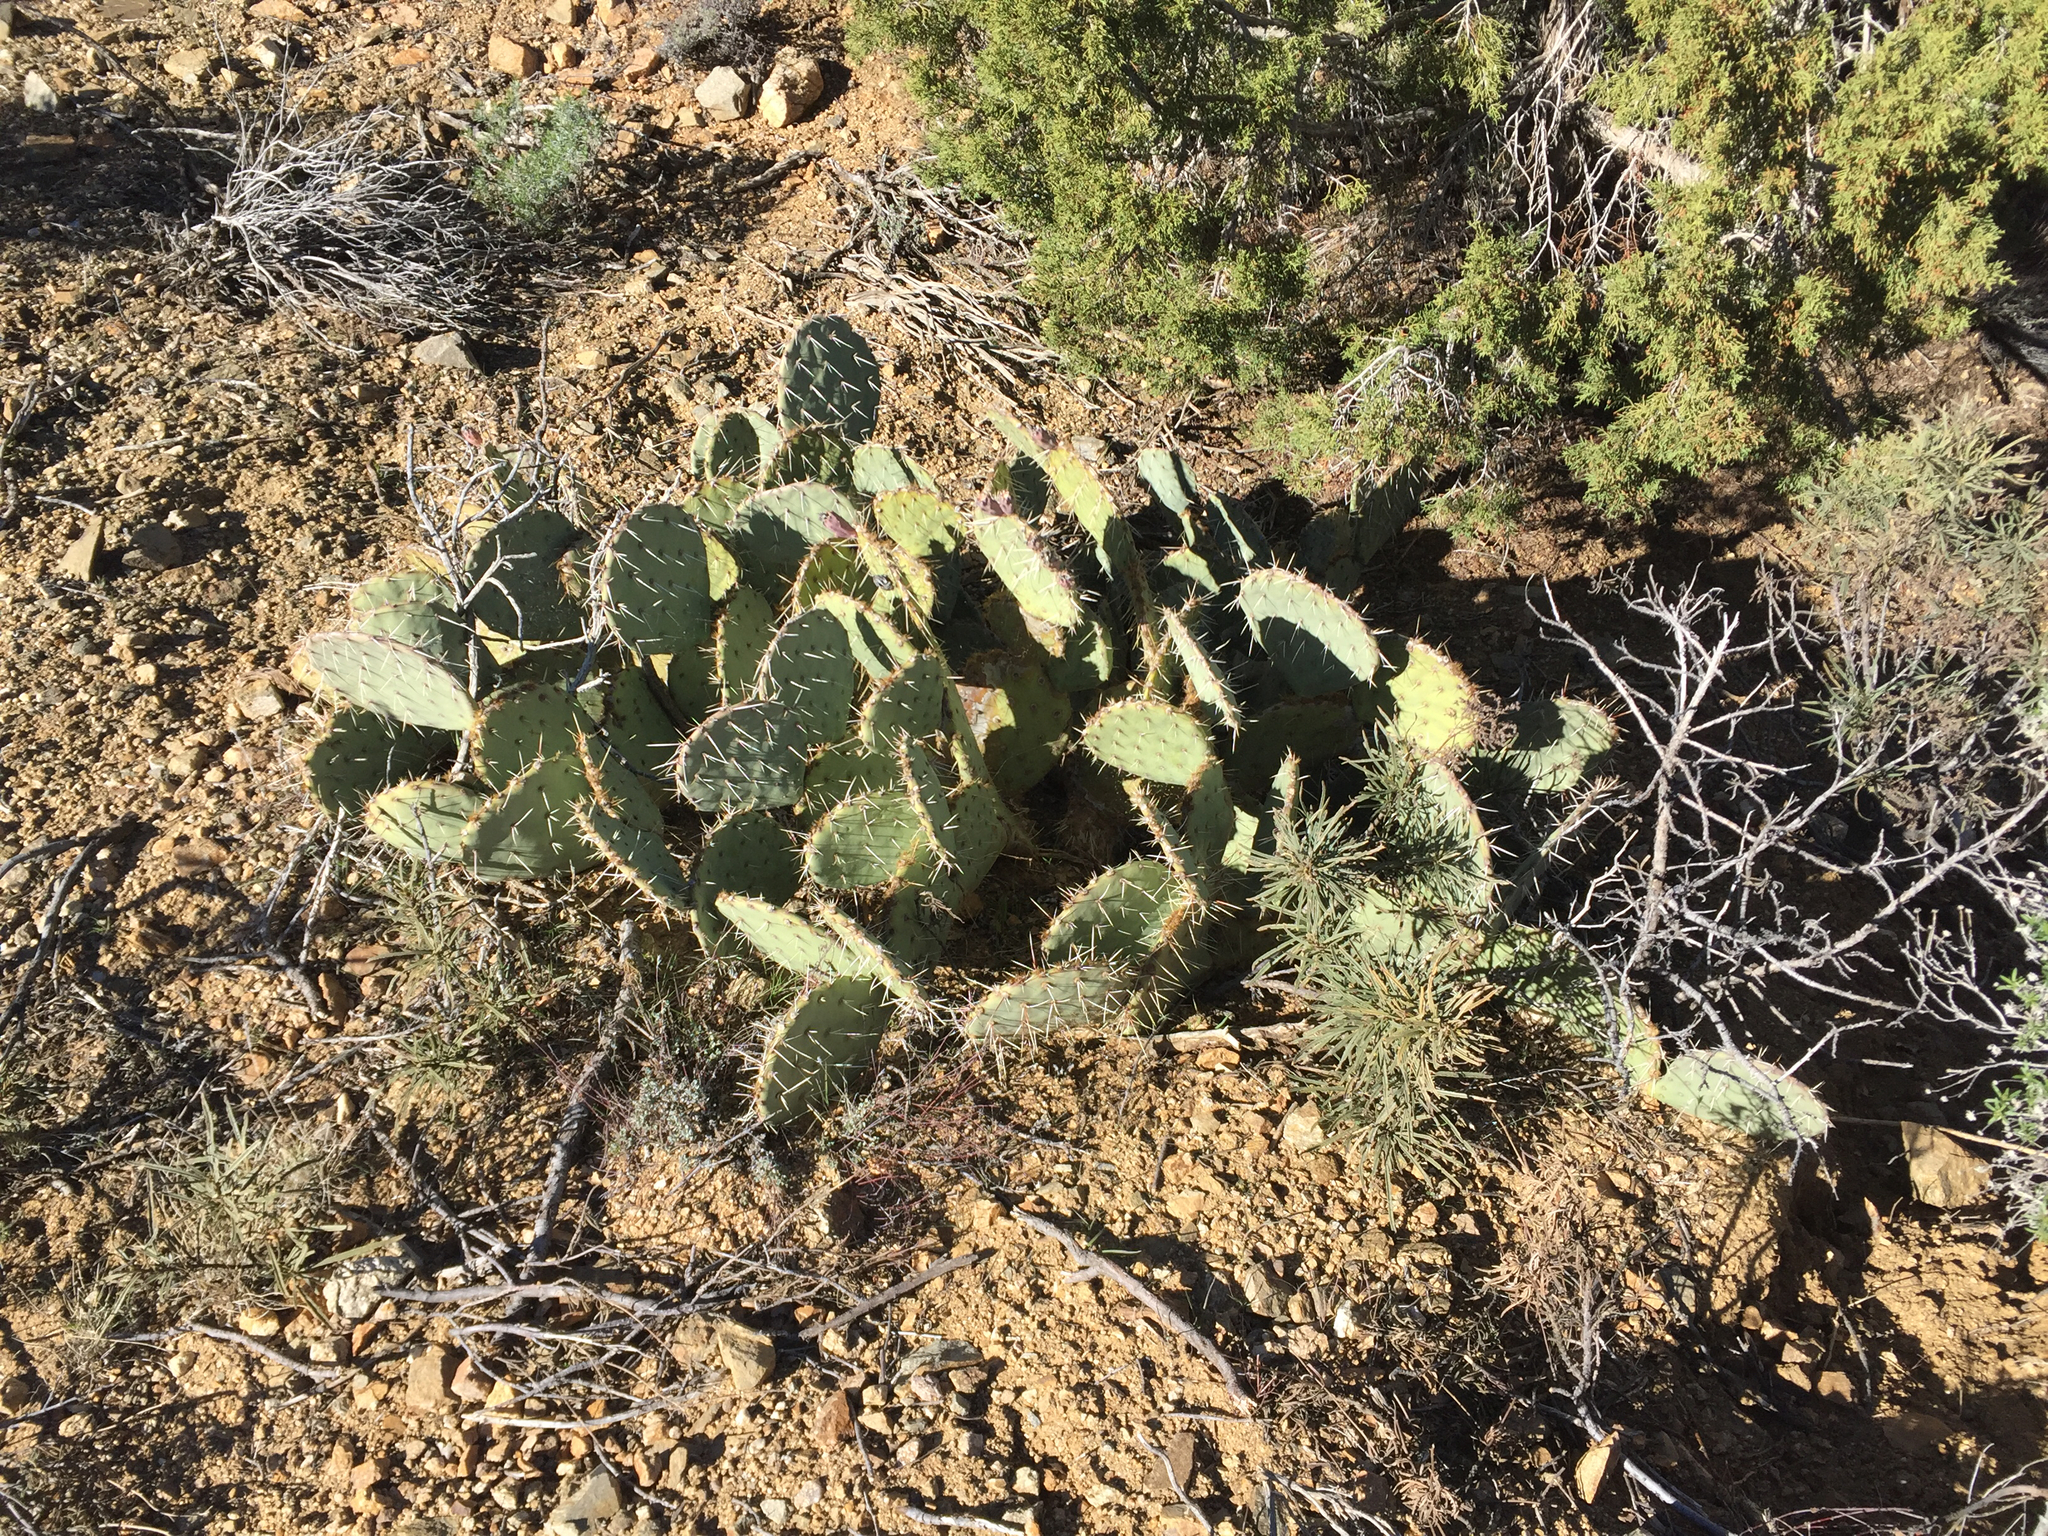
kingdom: Plantae
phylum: Tracheophyta
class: Magnoliopsida
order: Caryophyllales
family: Cactaceae
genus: Opuntia
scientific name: Opuntia engelmannii
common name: Cactus-apple
